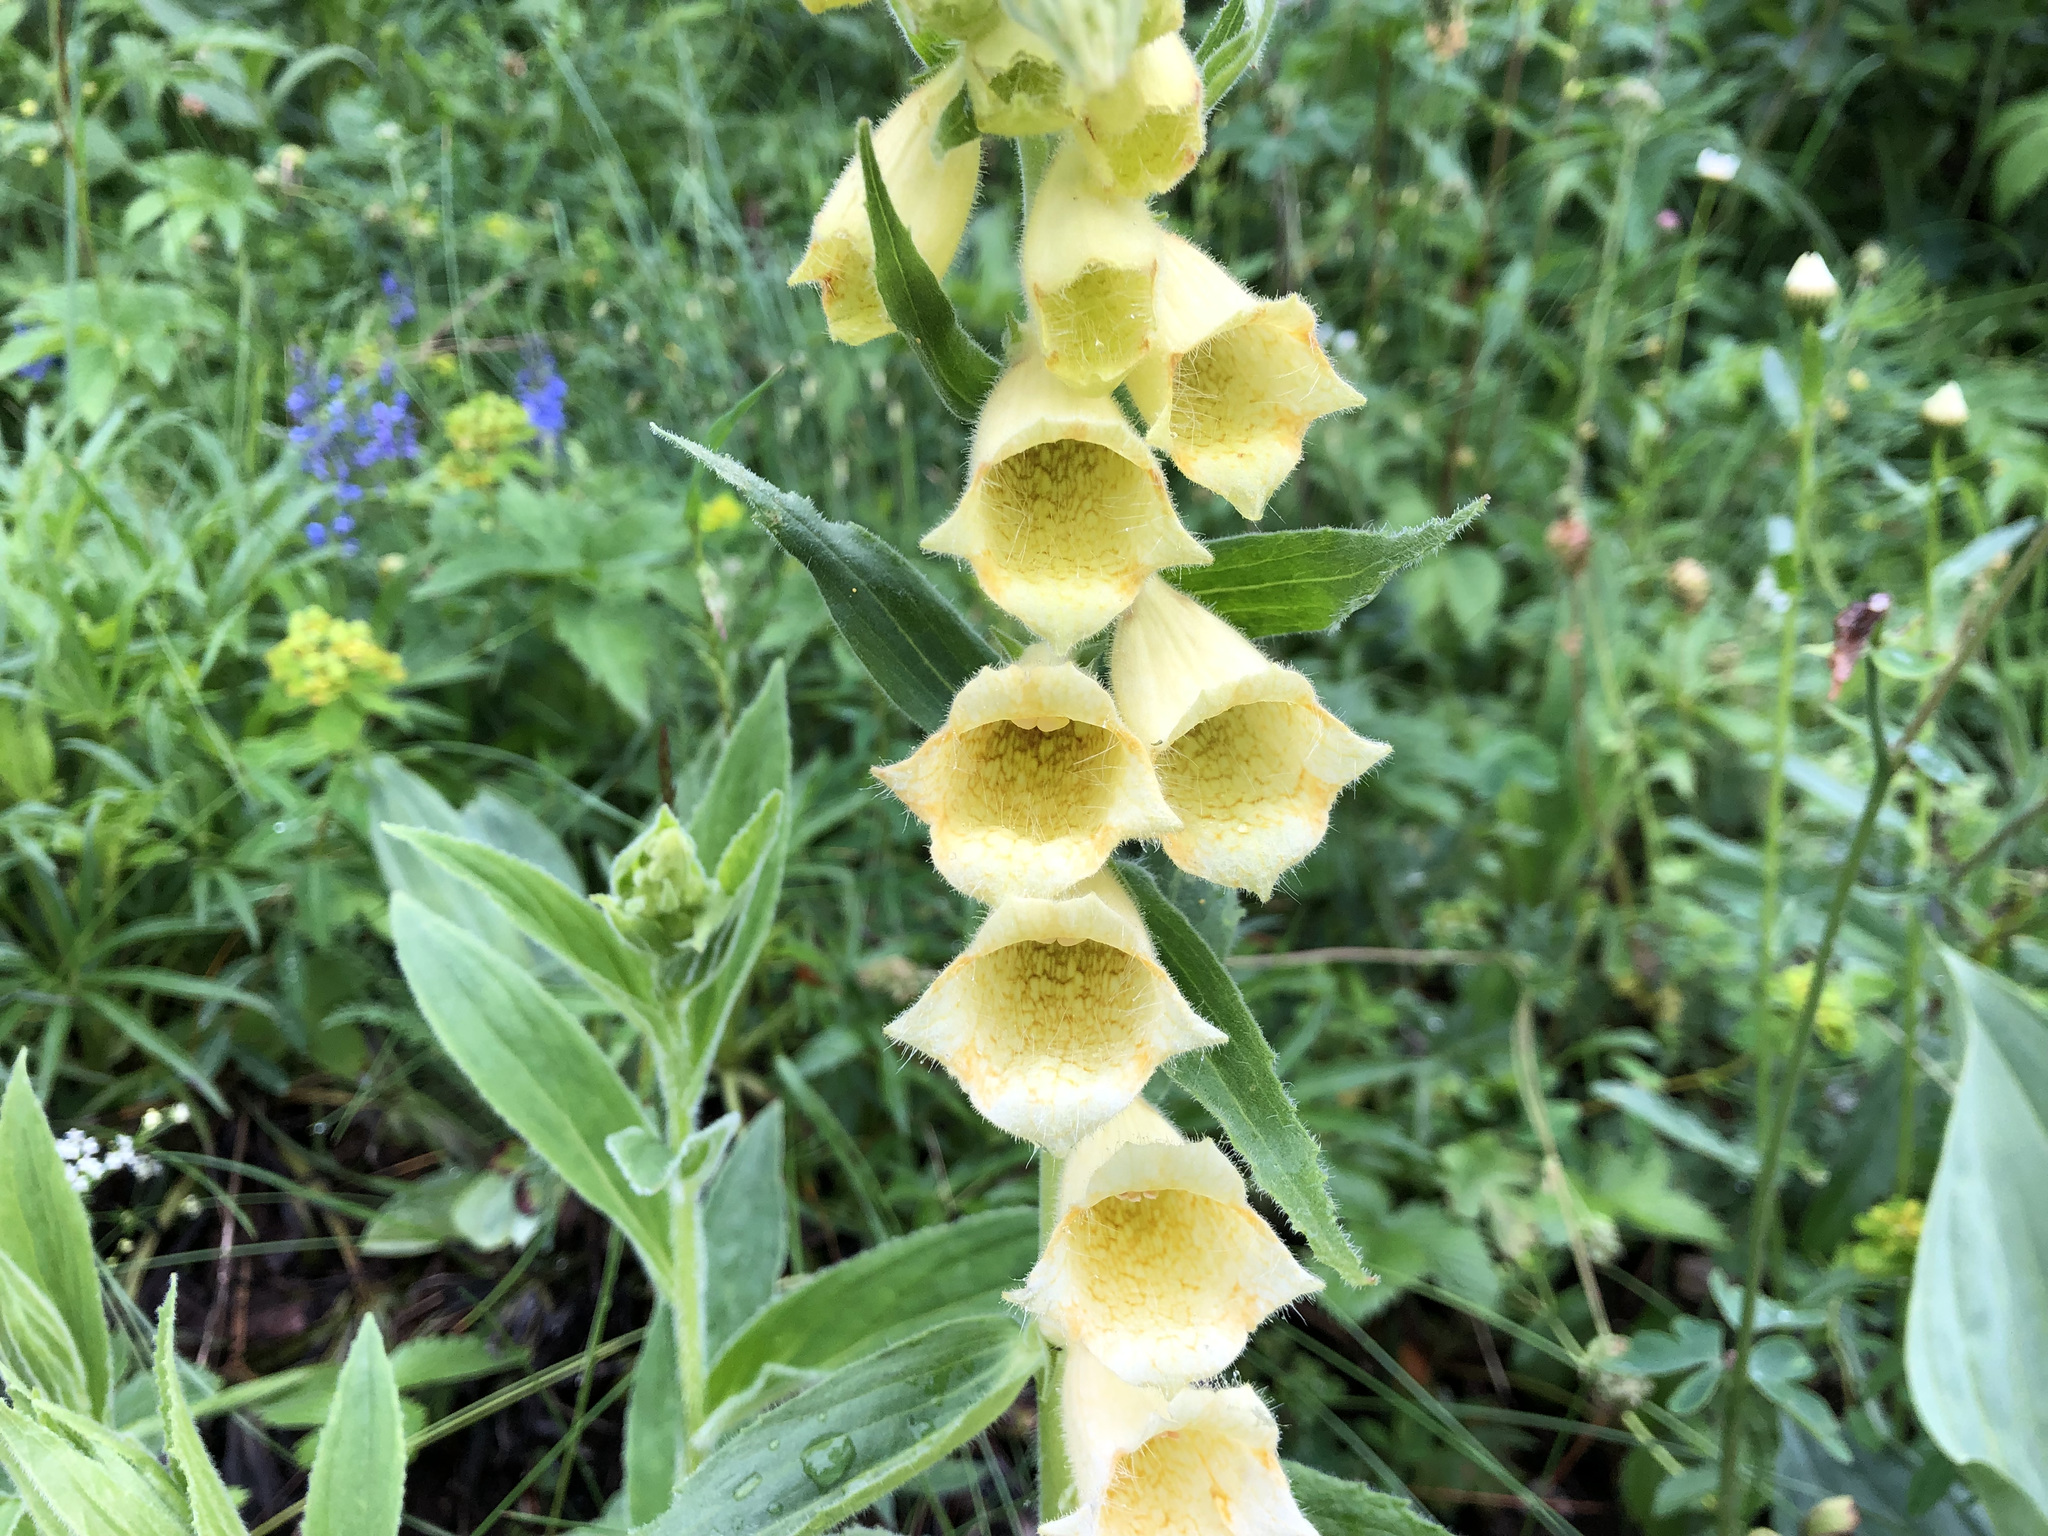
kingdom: Plantae
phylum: Tracheophyta
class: Magnoliopsida
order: Lamiales
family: Plantaginaceae
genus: Digitalis
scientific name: Digitalis grandiflora
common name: Yellow foxglove
